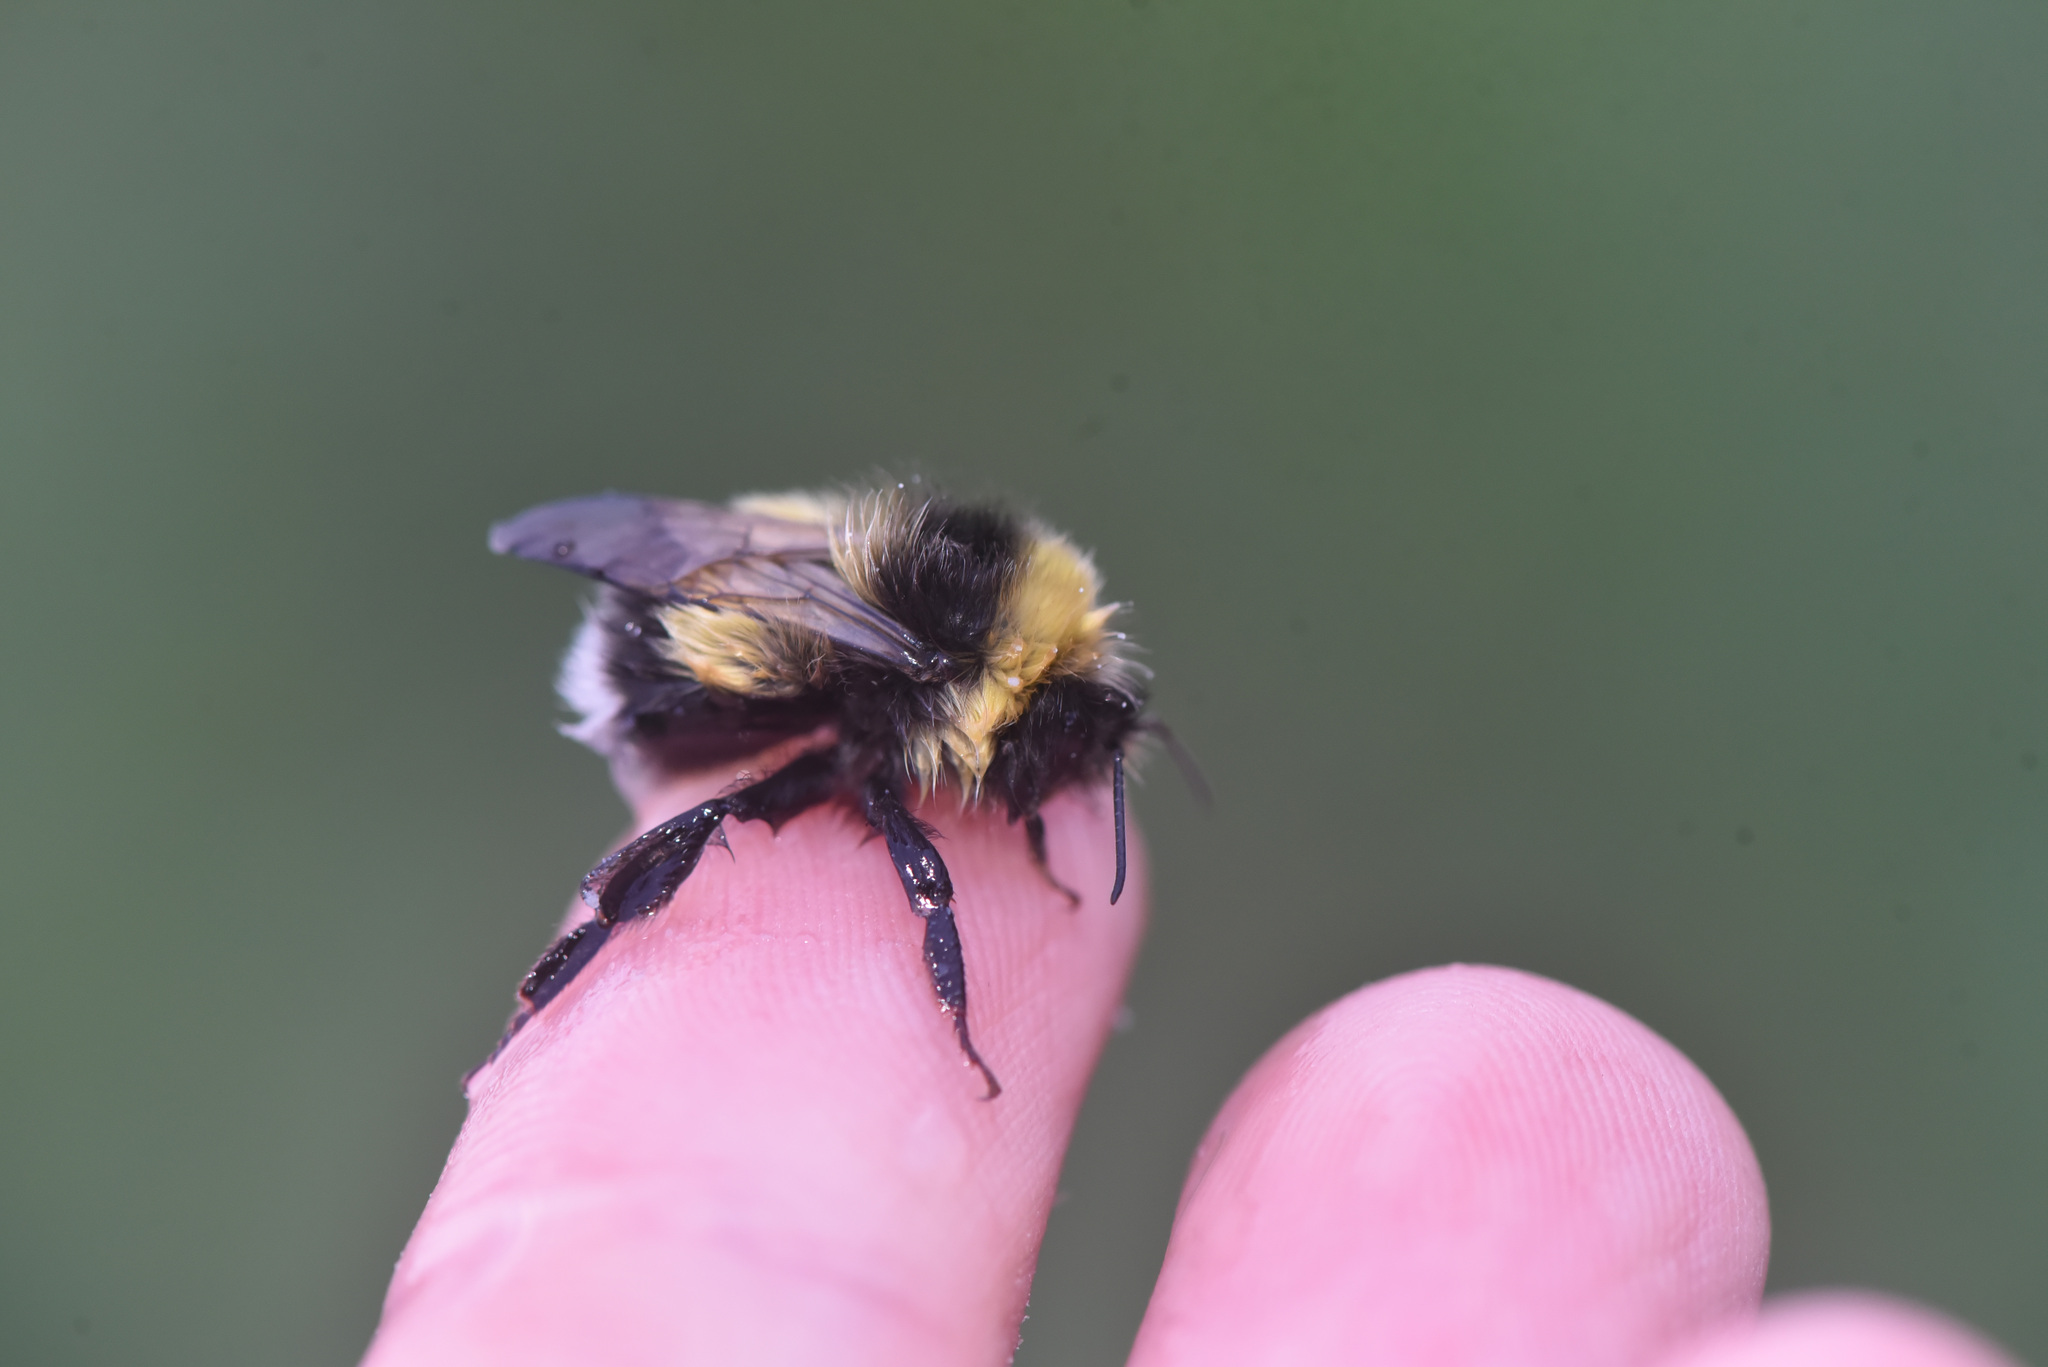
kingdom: Animalia
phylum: Arthropoda
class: Insecta
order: Hymenoptera
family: Apidae
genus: Bombus
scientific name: Bombus cryptarum
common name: Cryptic bumblebee
